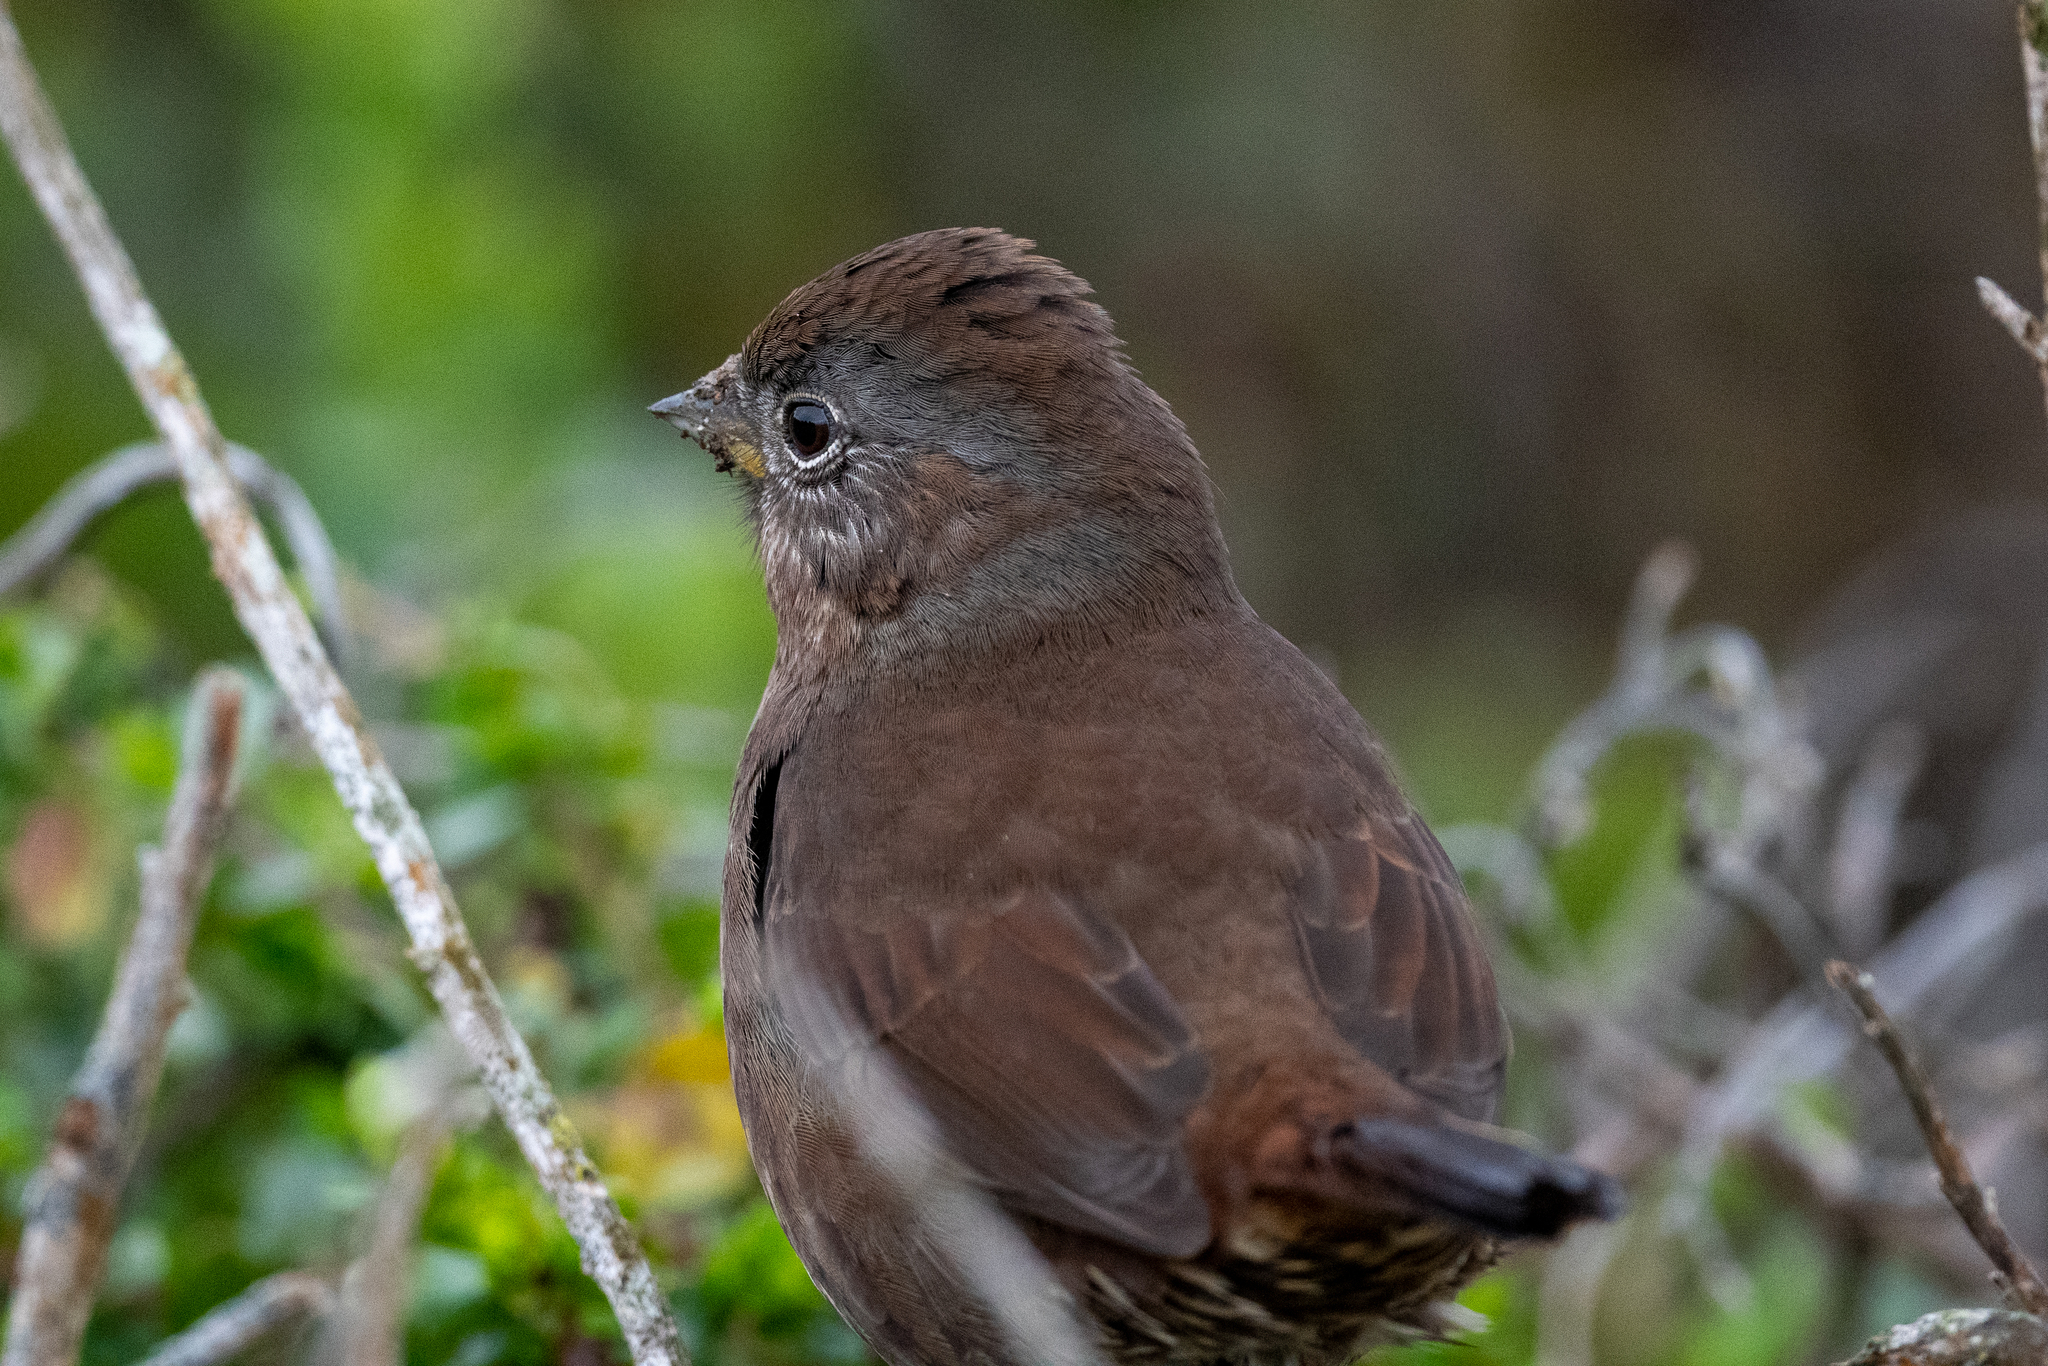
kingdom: Animalia
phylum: Chordata
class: Aves
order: Passeriformes
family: Passerellidae
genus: Passerella
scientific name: Passerella iliaca
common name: Fox sparrow
